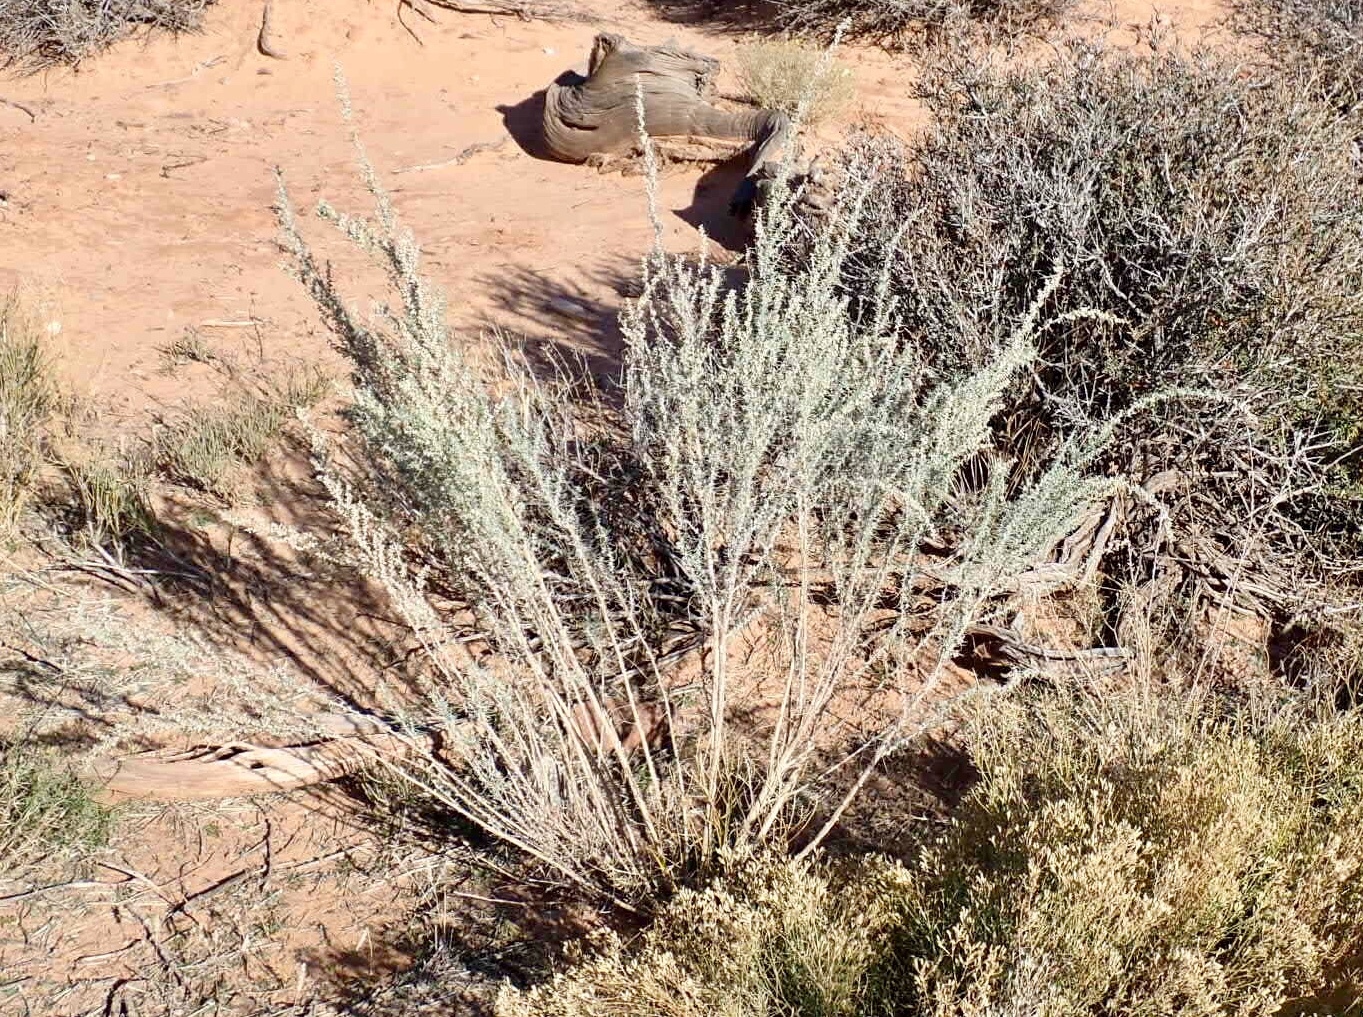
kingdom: Plantae
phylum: Tracheophyta
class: Magnoliopsida
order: Asterales
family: Asteraceae
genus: Artemisia
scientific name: Artemisia filifolia
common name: Sand-sage
